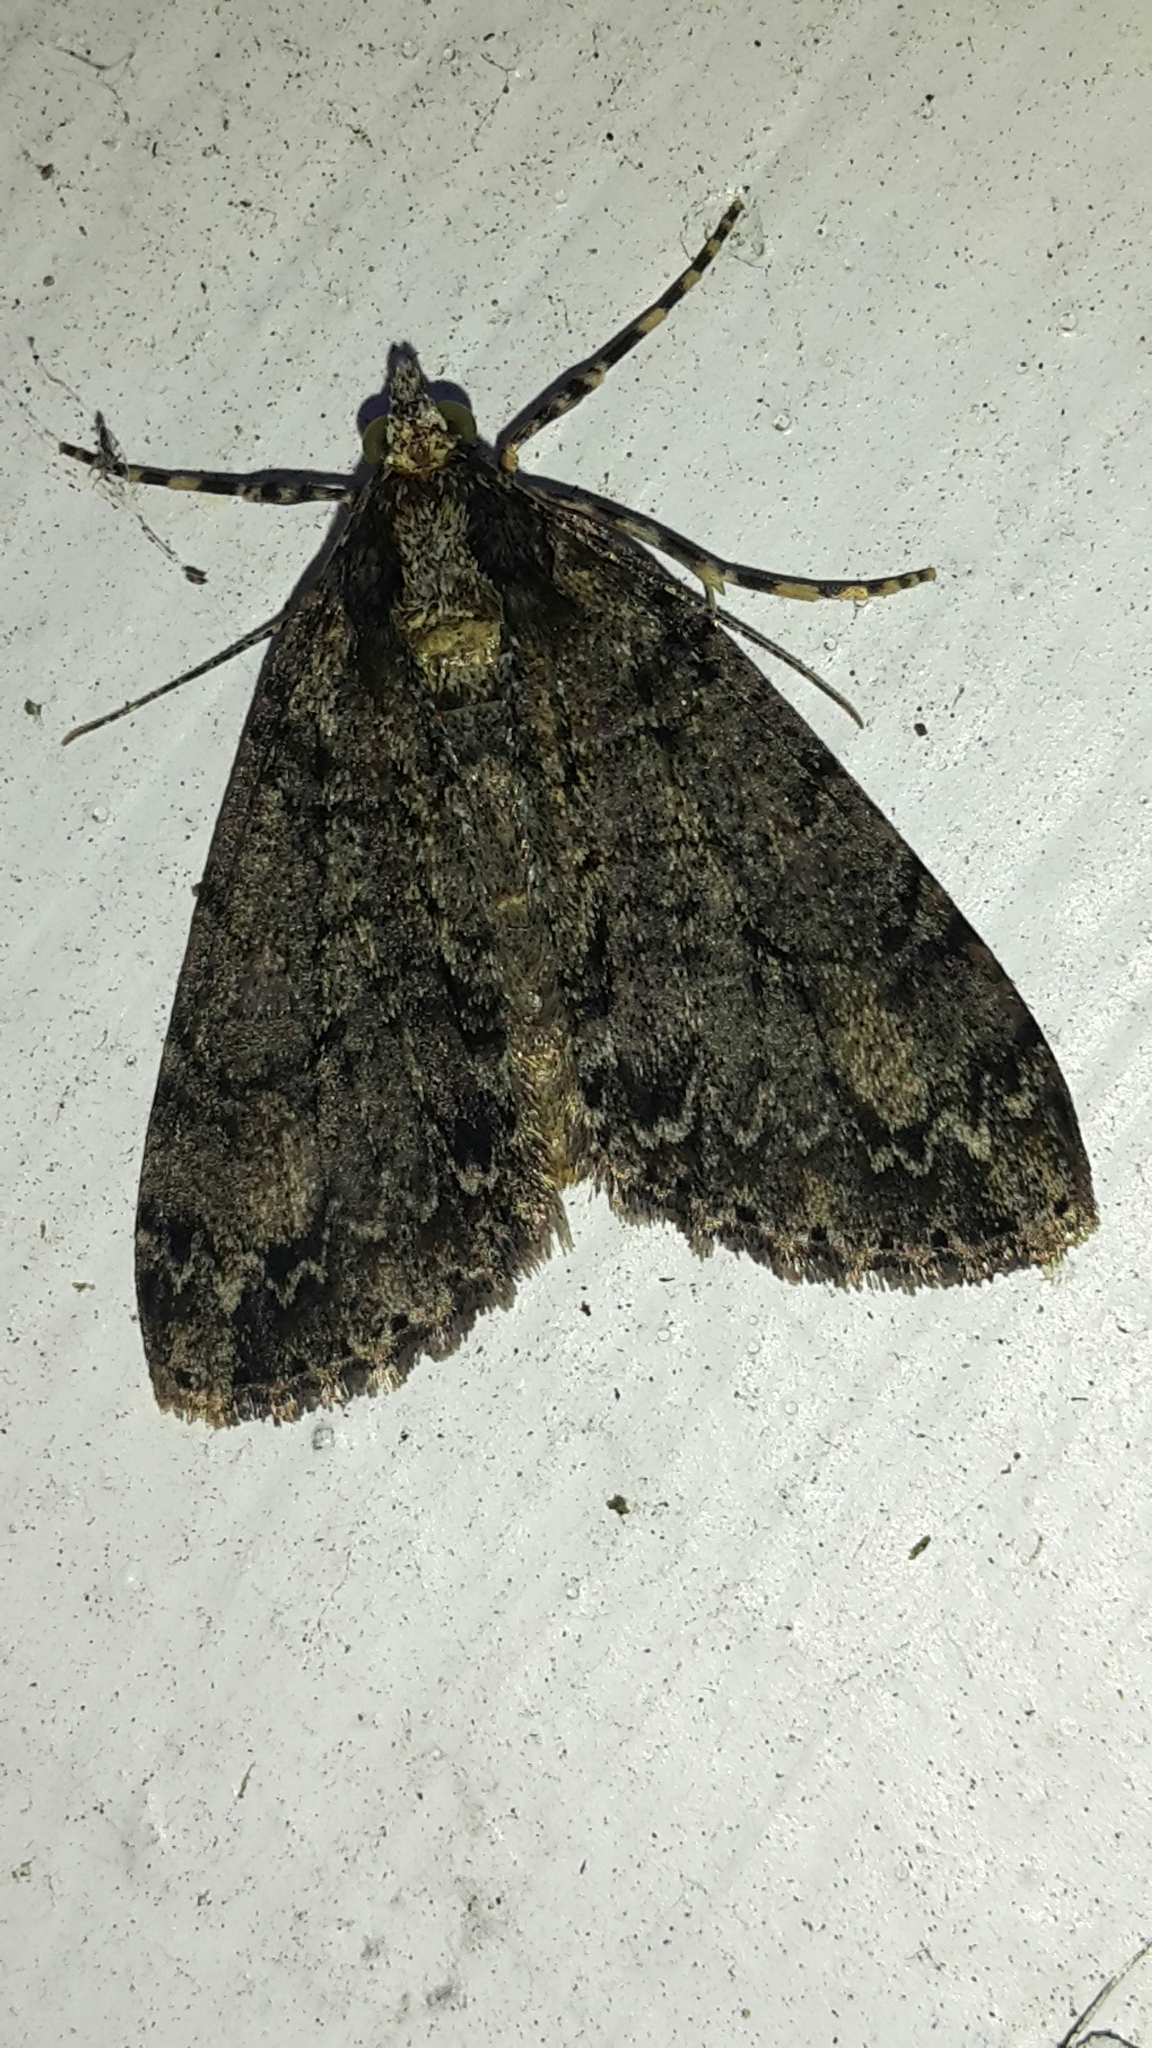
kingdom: Animalia
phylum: Arthropoda
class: Insecta
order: Lepidoptera
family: Geometridae
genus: Pseudocoremia
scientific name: Pseudocoremia suavis
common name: Common forest looper
